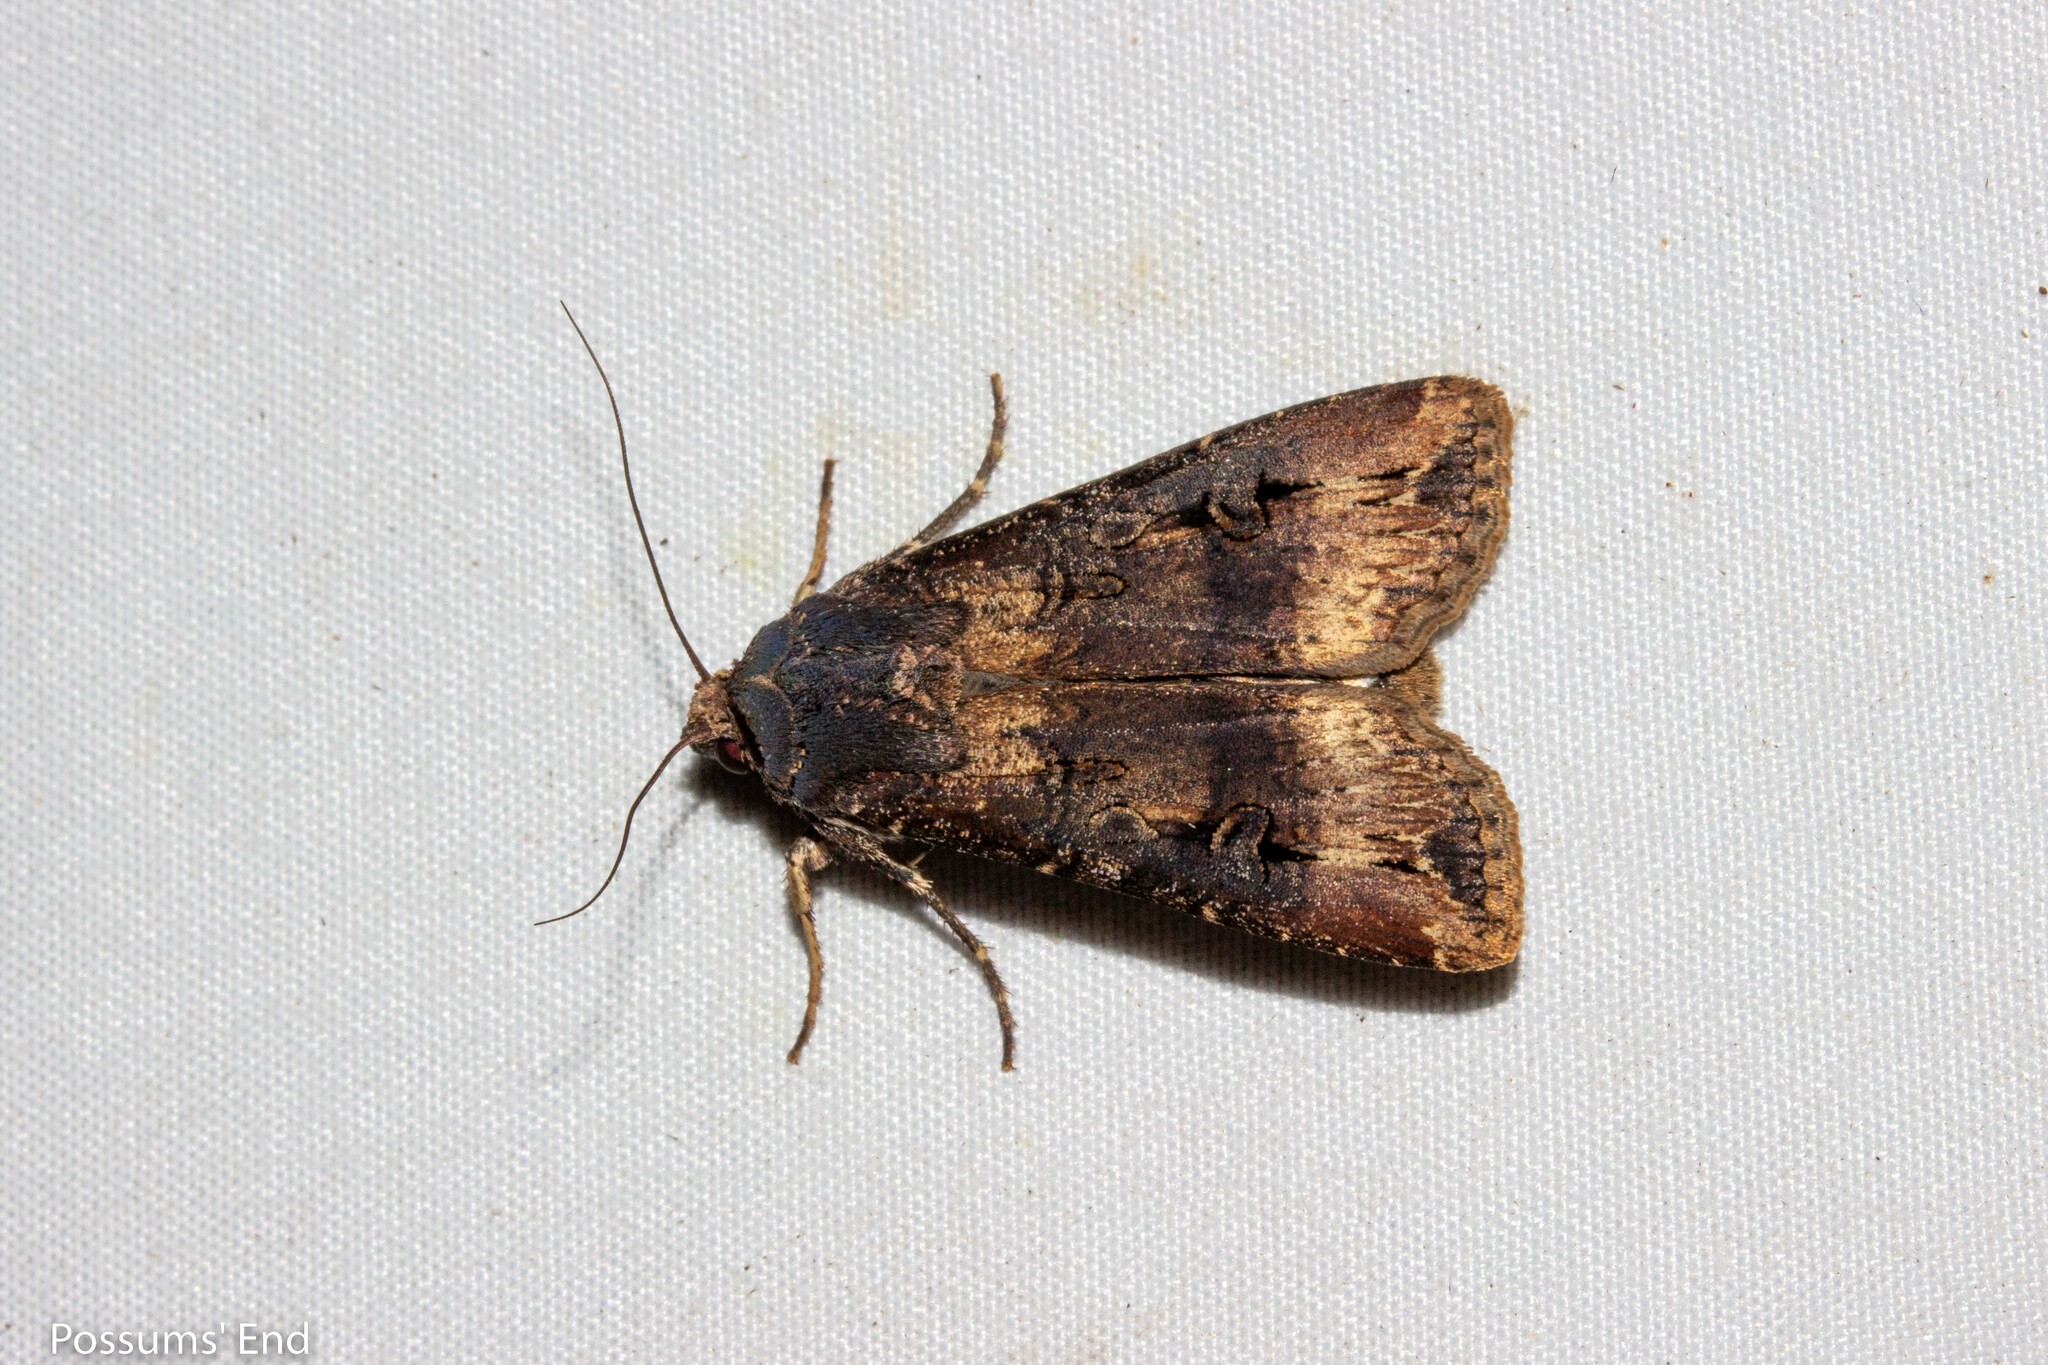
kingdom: Animalia
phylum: Arthropoda
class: Insecta
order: Lepidoptera
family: Noctuidae
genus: Agrotis
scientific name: Agrotis ipsilon
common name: Dark sword-grass
